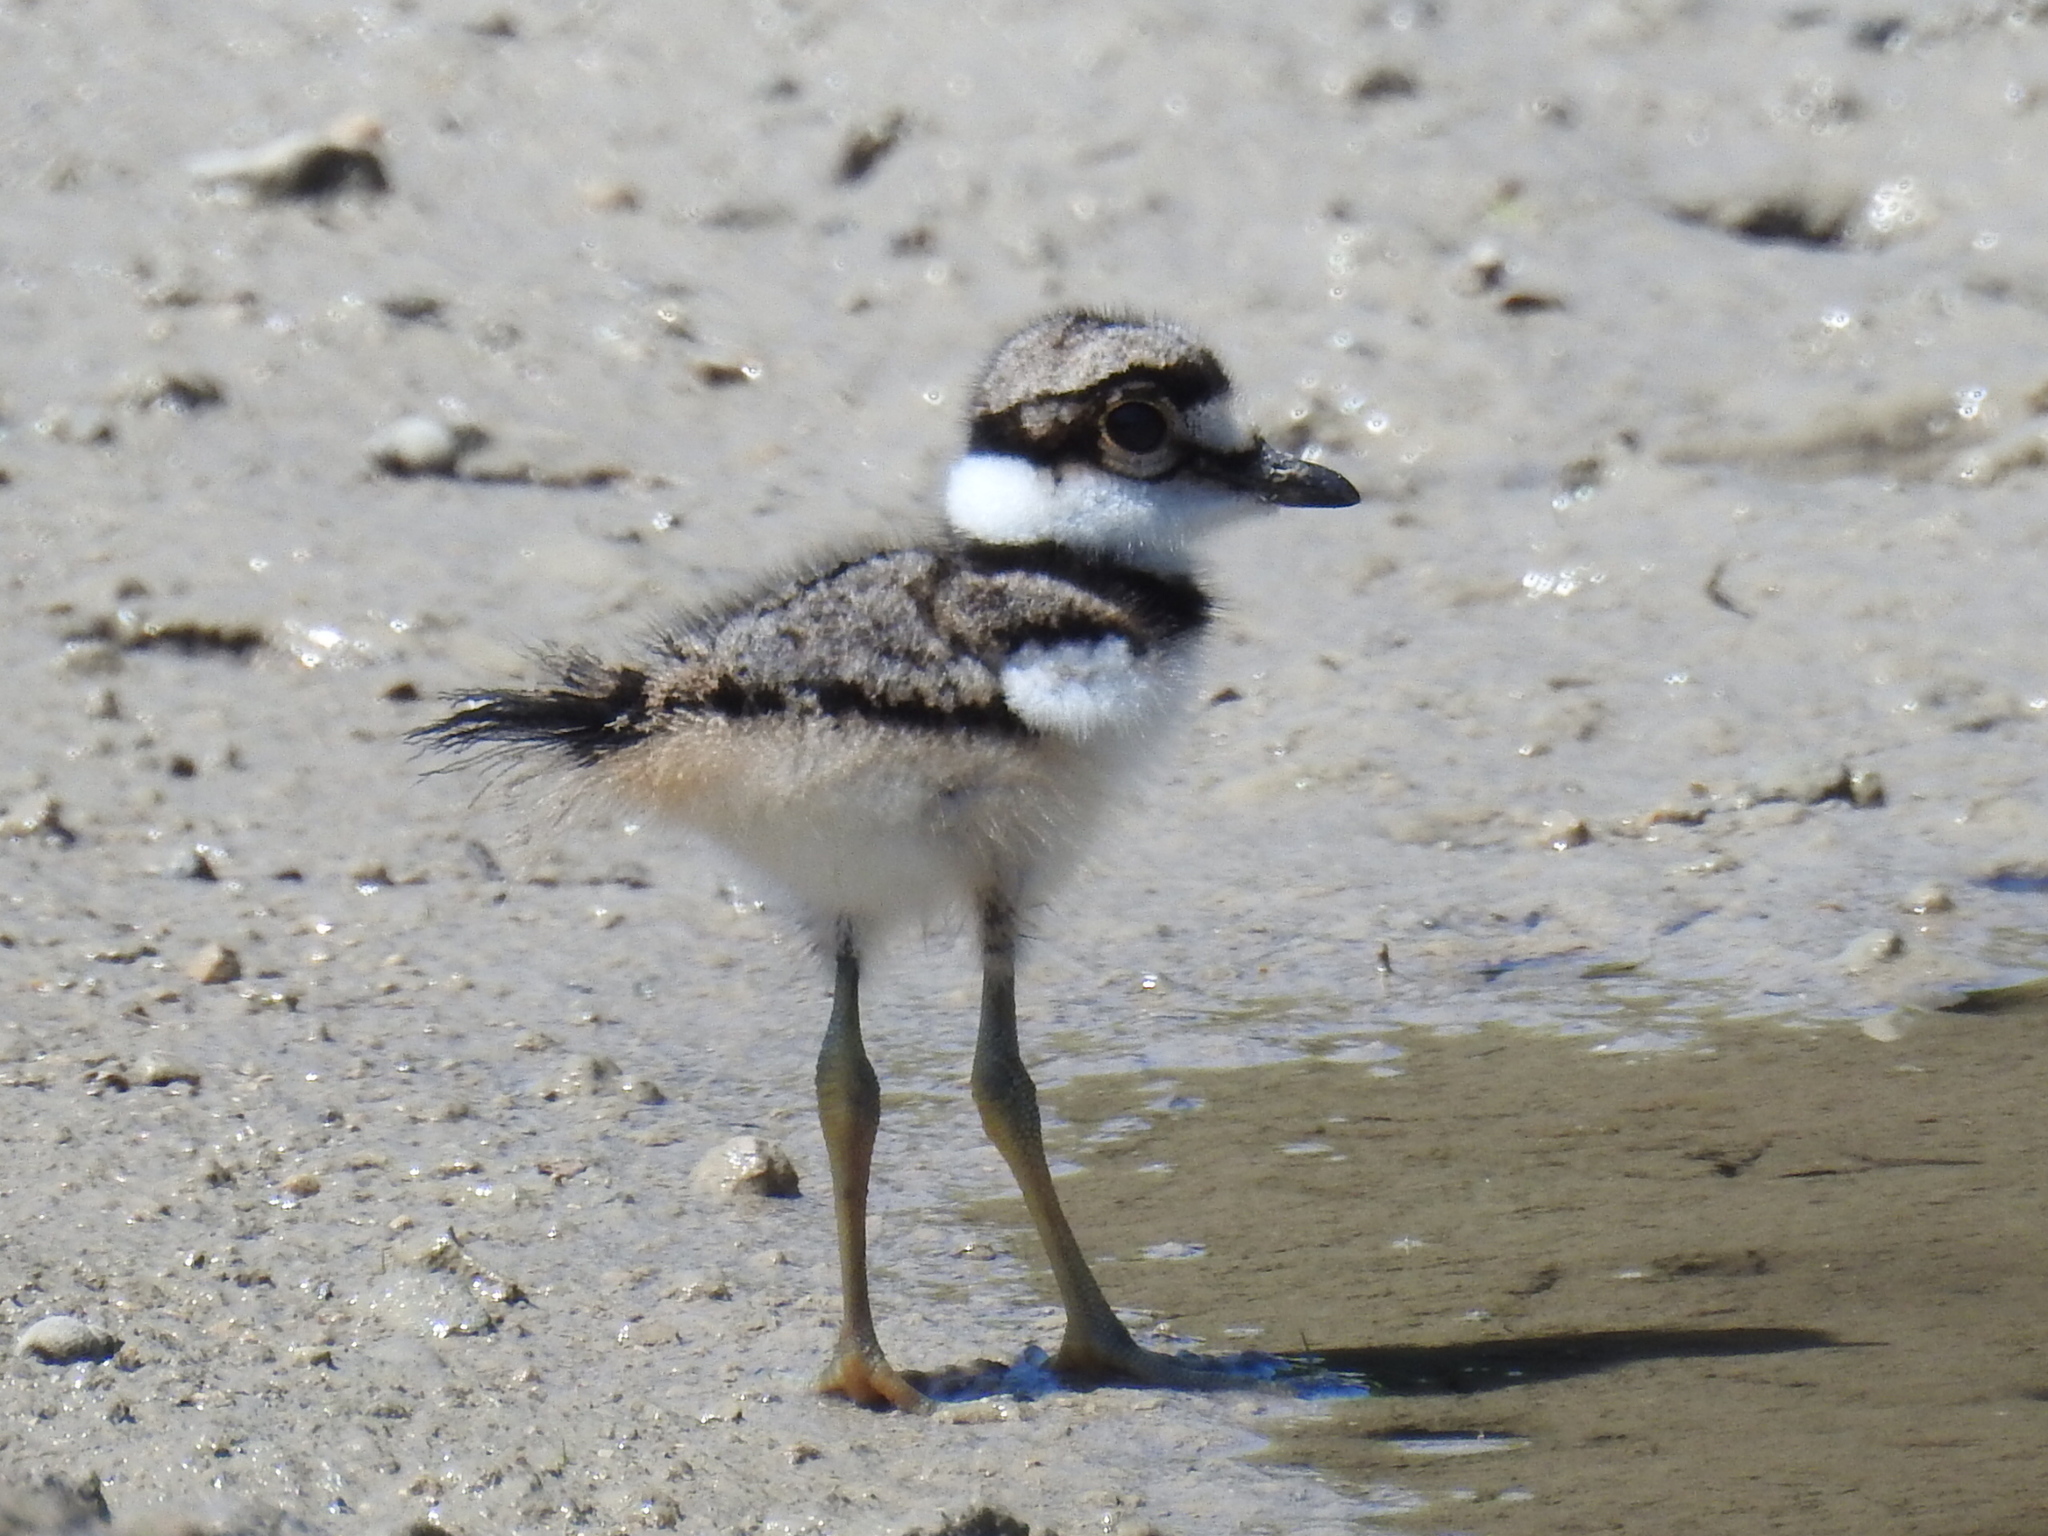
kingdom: Animalia
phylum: Chordata
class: Aves
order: Charadriiformes
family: Charadriidae
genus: Charadrius
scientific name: Charadrius vociferus
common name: Killdeer
